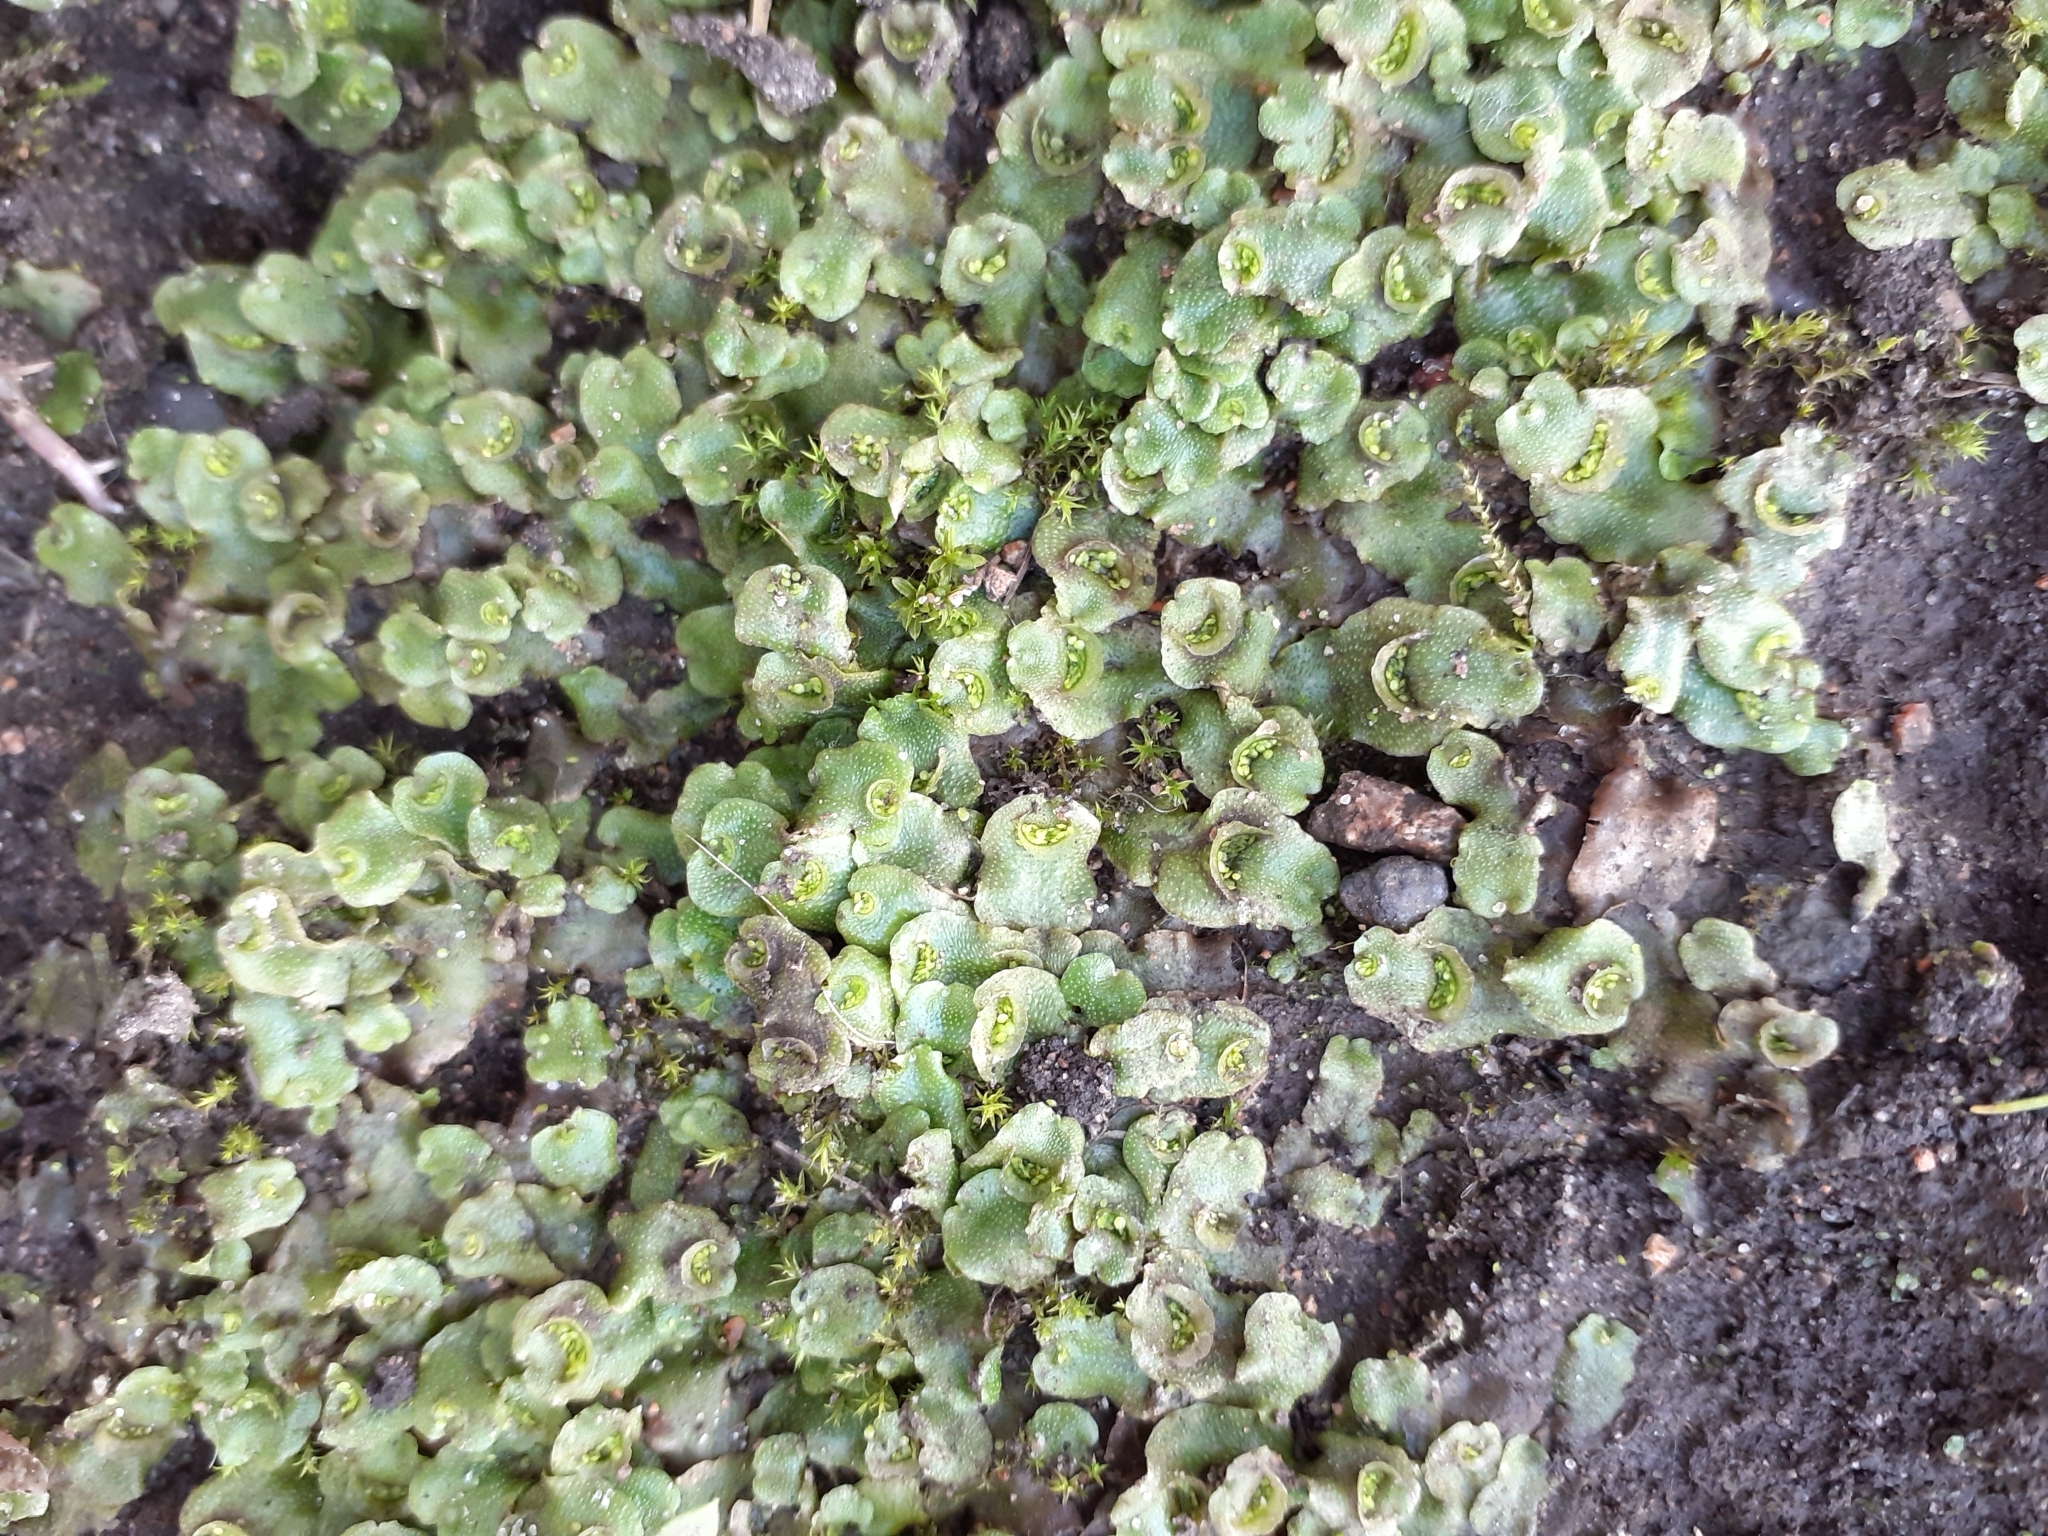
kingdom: Plantae
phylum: Marchantiophyta
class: Marchantiopsida
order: Lunulariales
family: Lunulariaceae
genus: Lunularia
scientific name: Lunularia cruciata
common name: Crescent-cup liverwort
